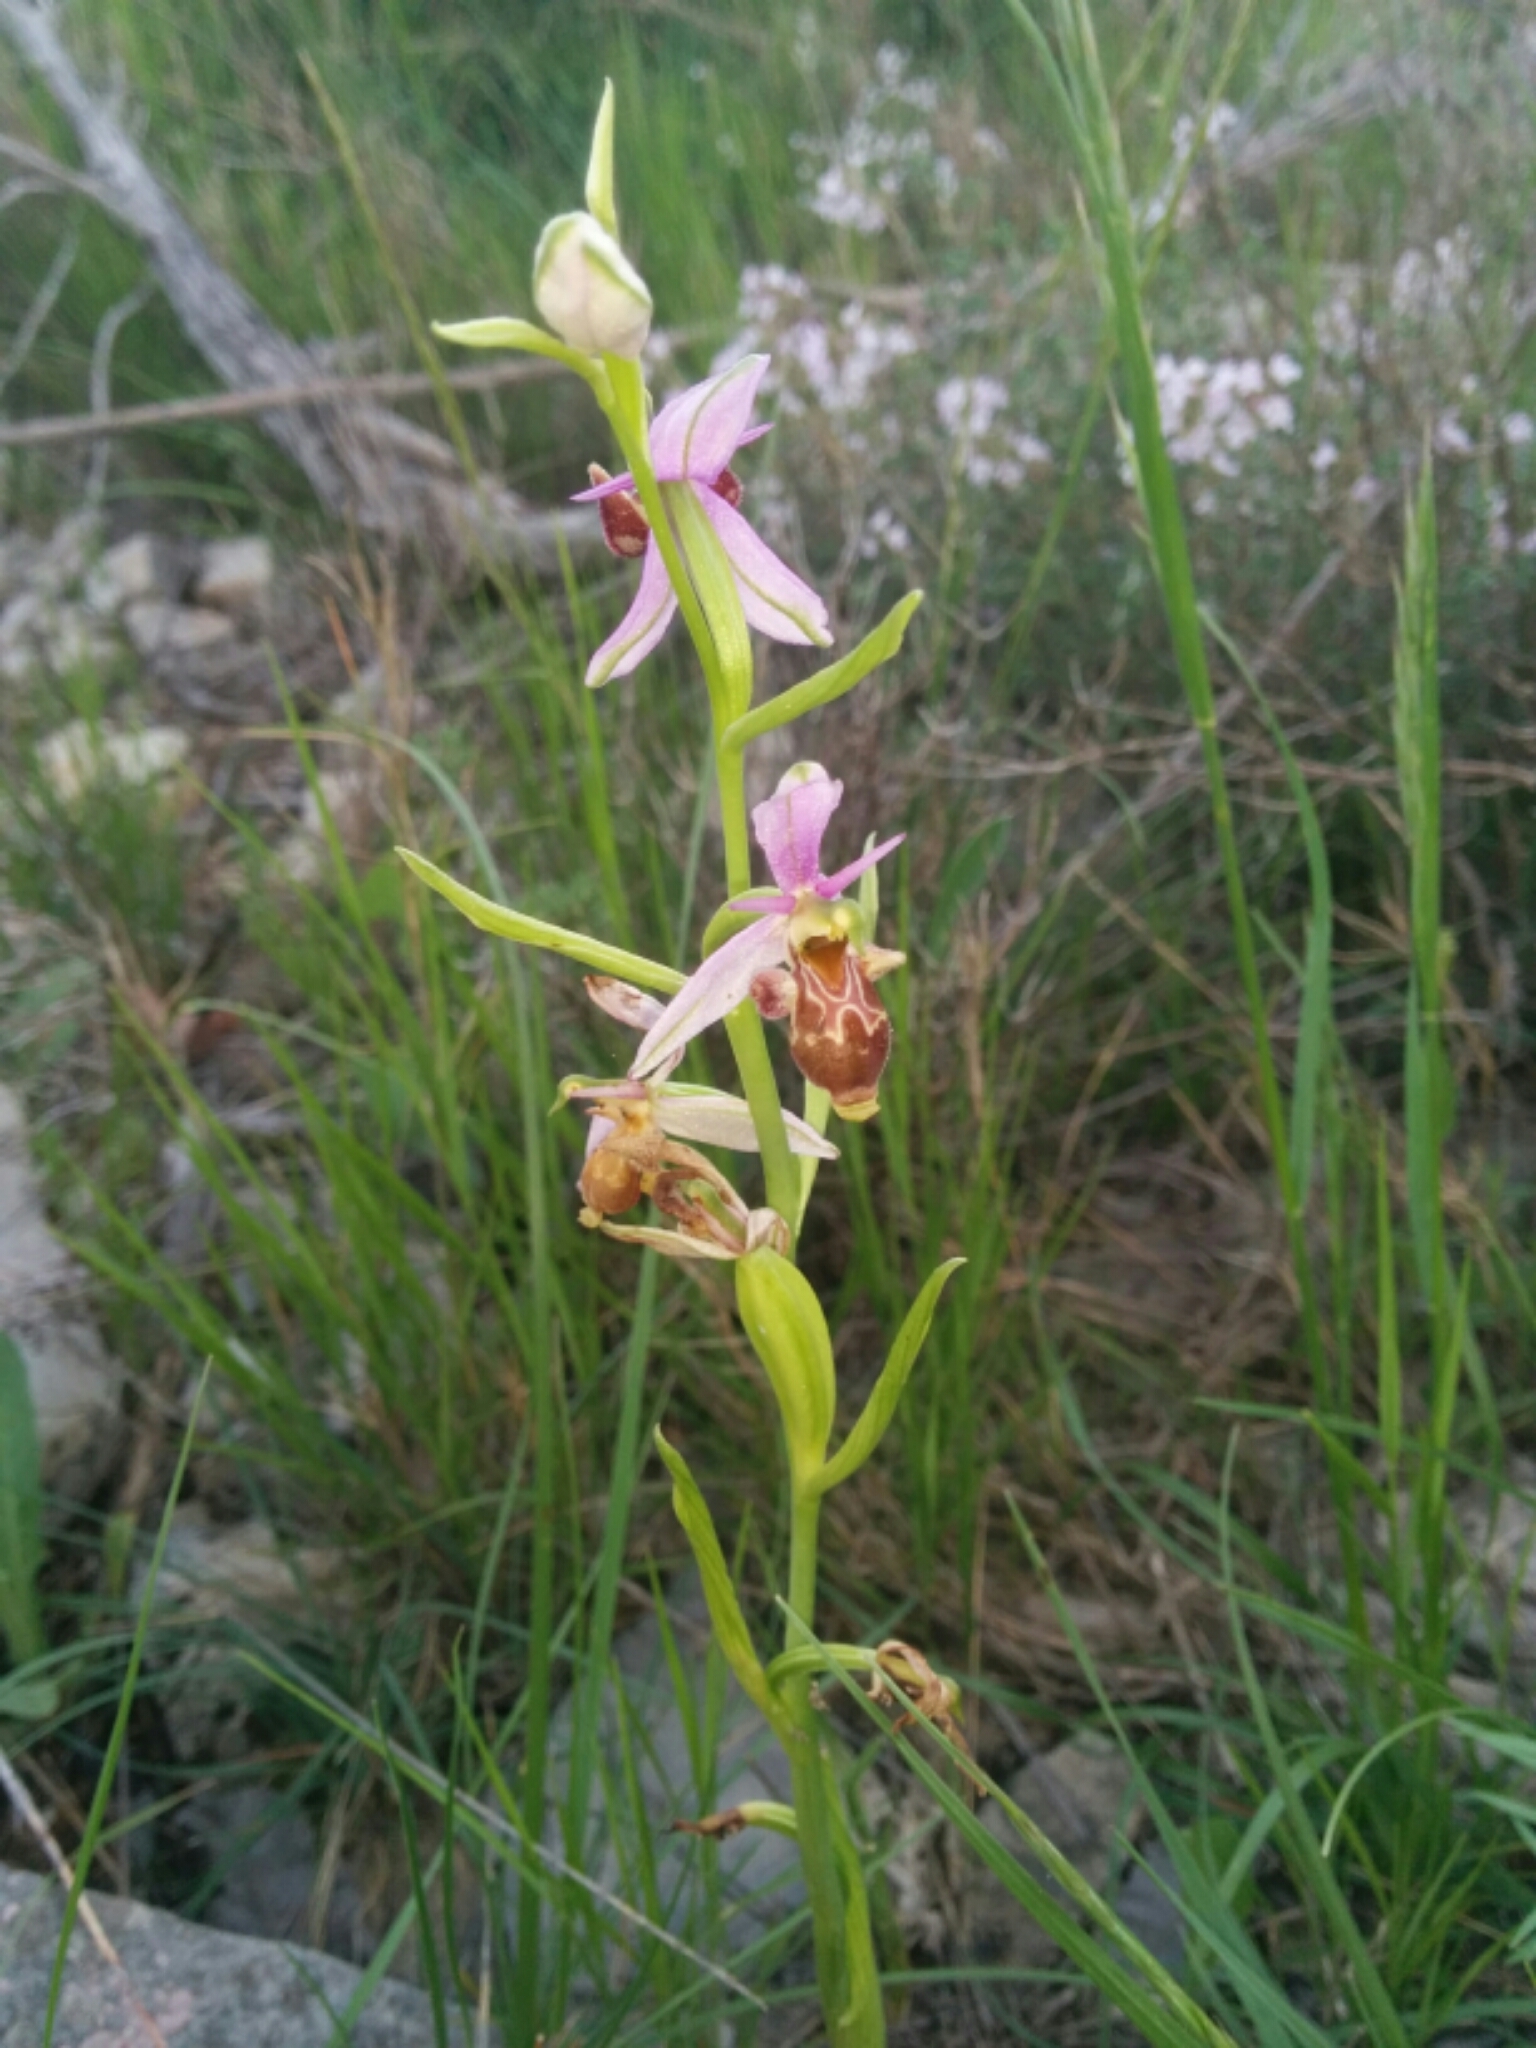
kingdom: Plantae
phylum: Tracheophyta
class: Liliopsida
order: Asparagales
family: Orchidaceae
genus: Ophrys
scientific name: Ophrys scolopax
